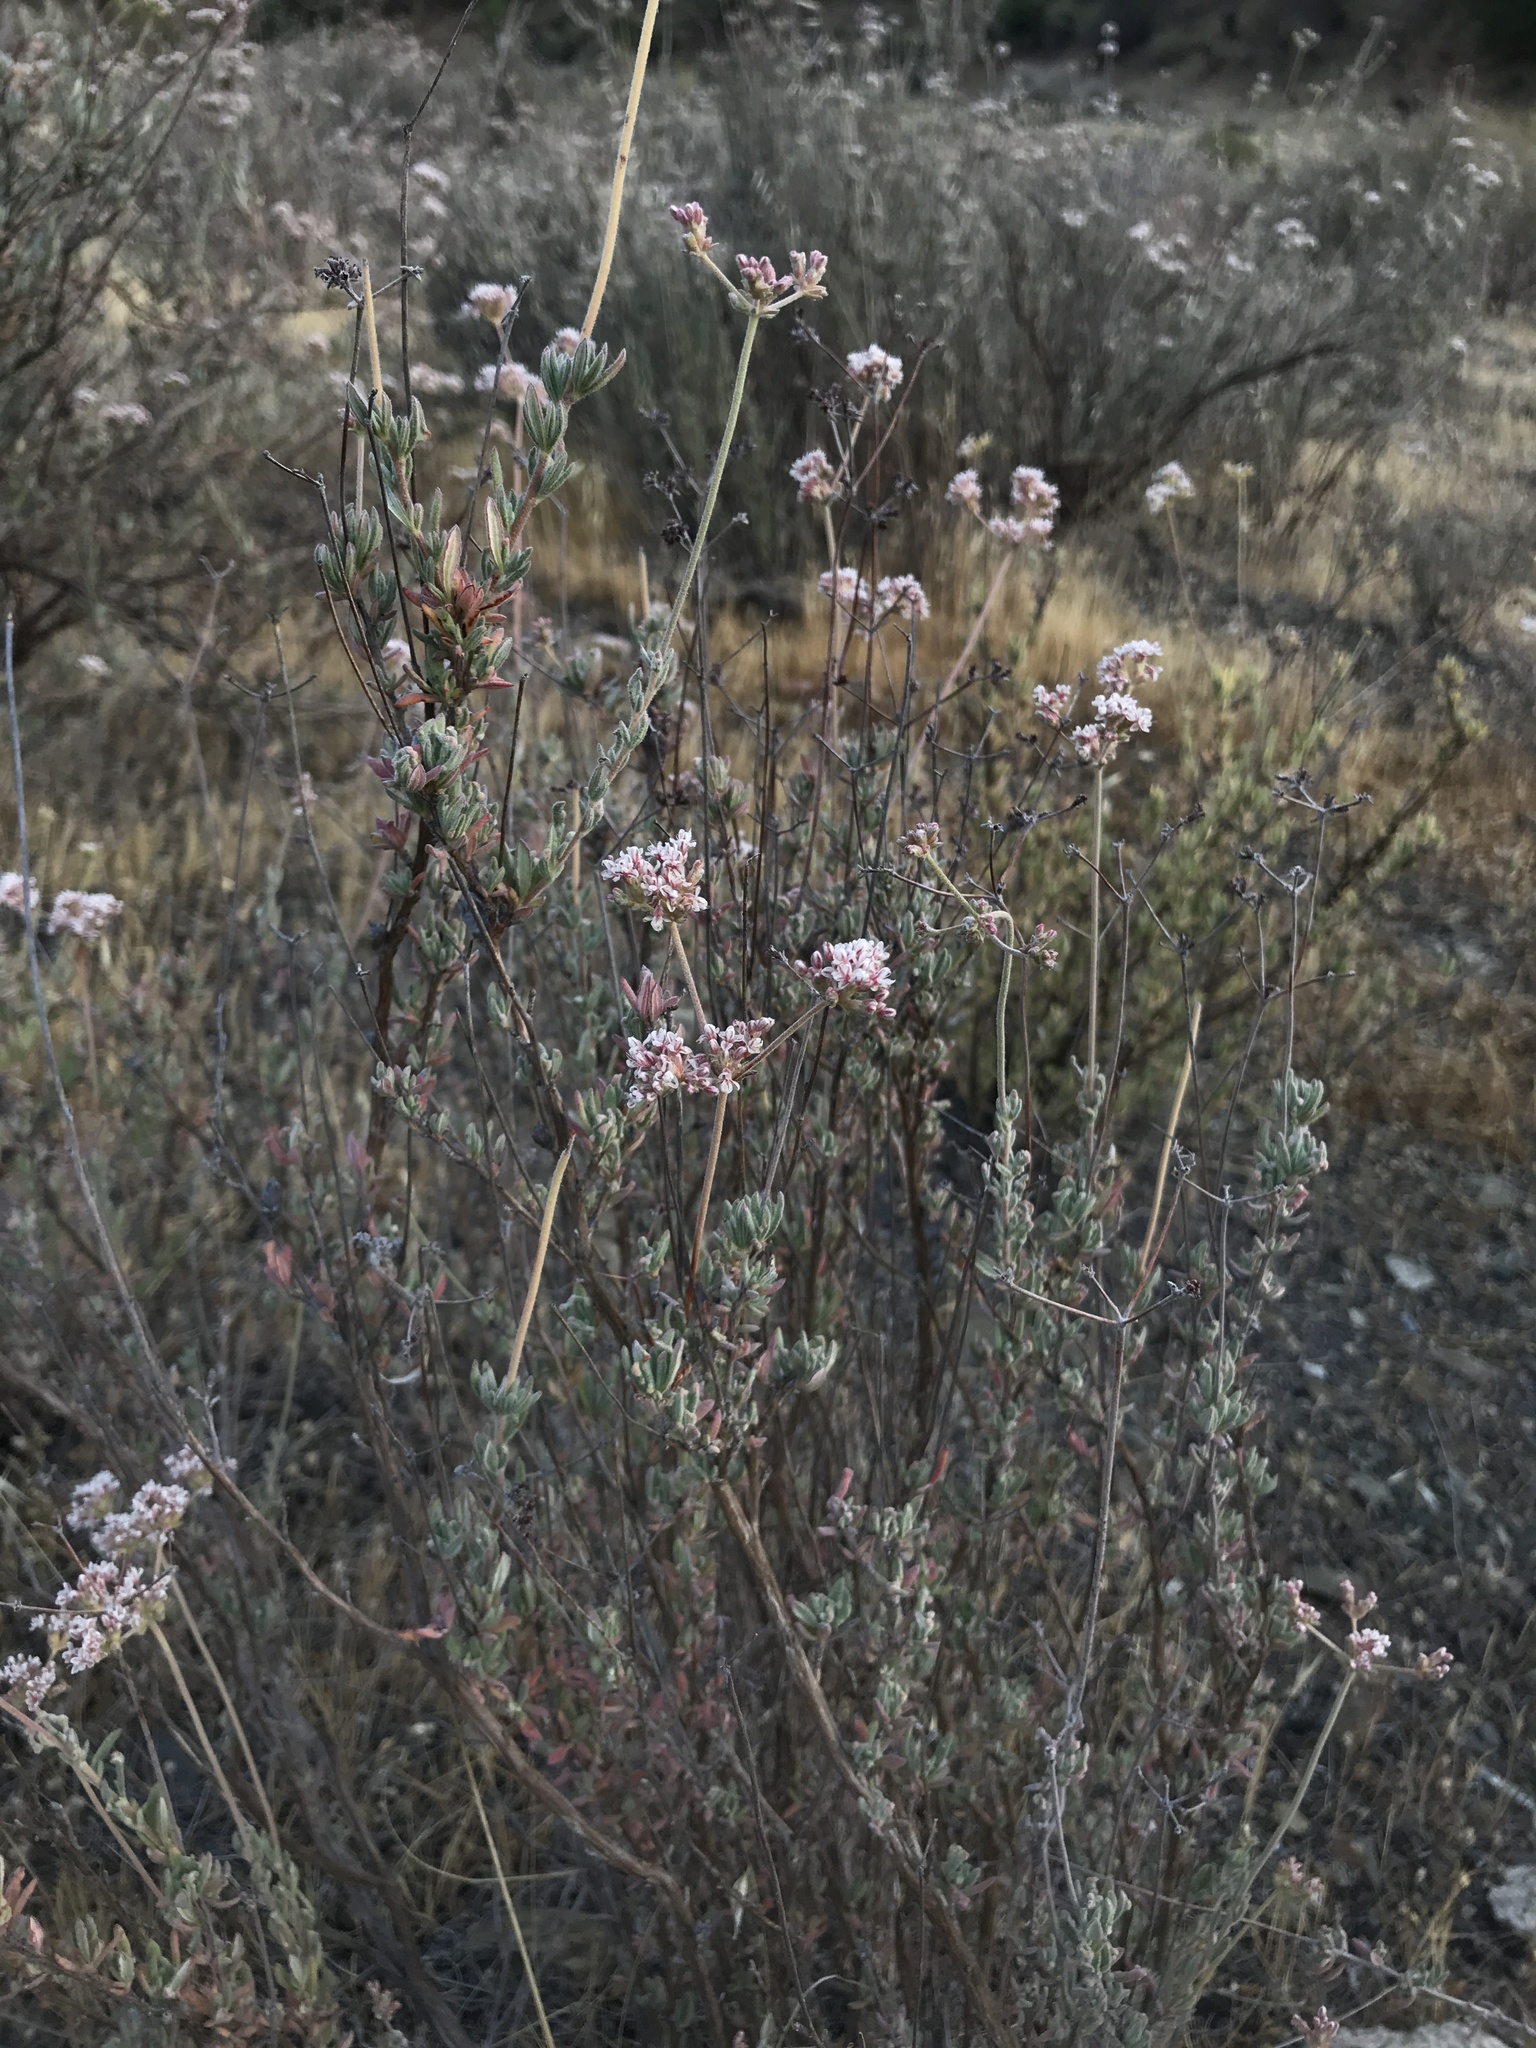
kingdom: Plantae
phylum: Tracheophyta
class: Magnoliopsida
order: Caryophyllales
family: Polygonaceae
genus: Eriogonum
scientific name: Eriogonum fasciculatum
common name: California wild buckwheat
